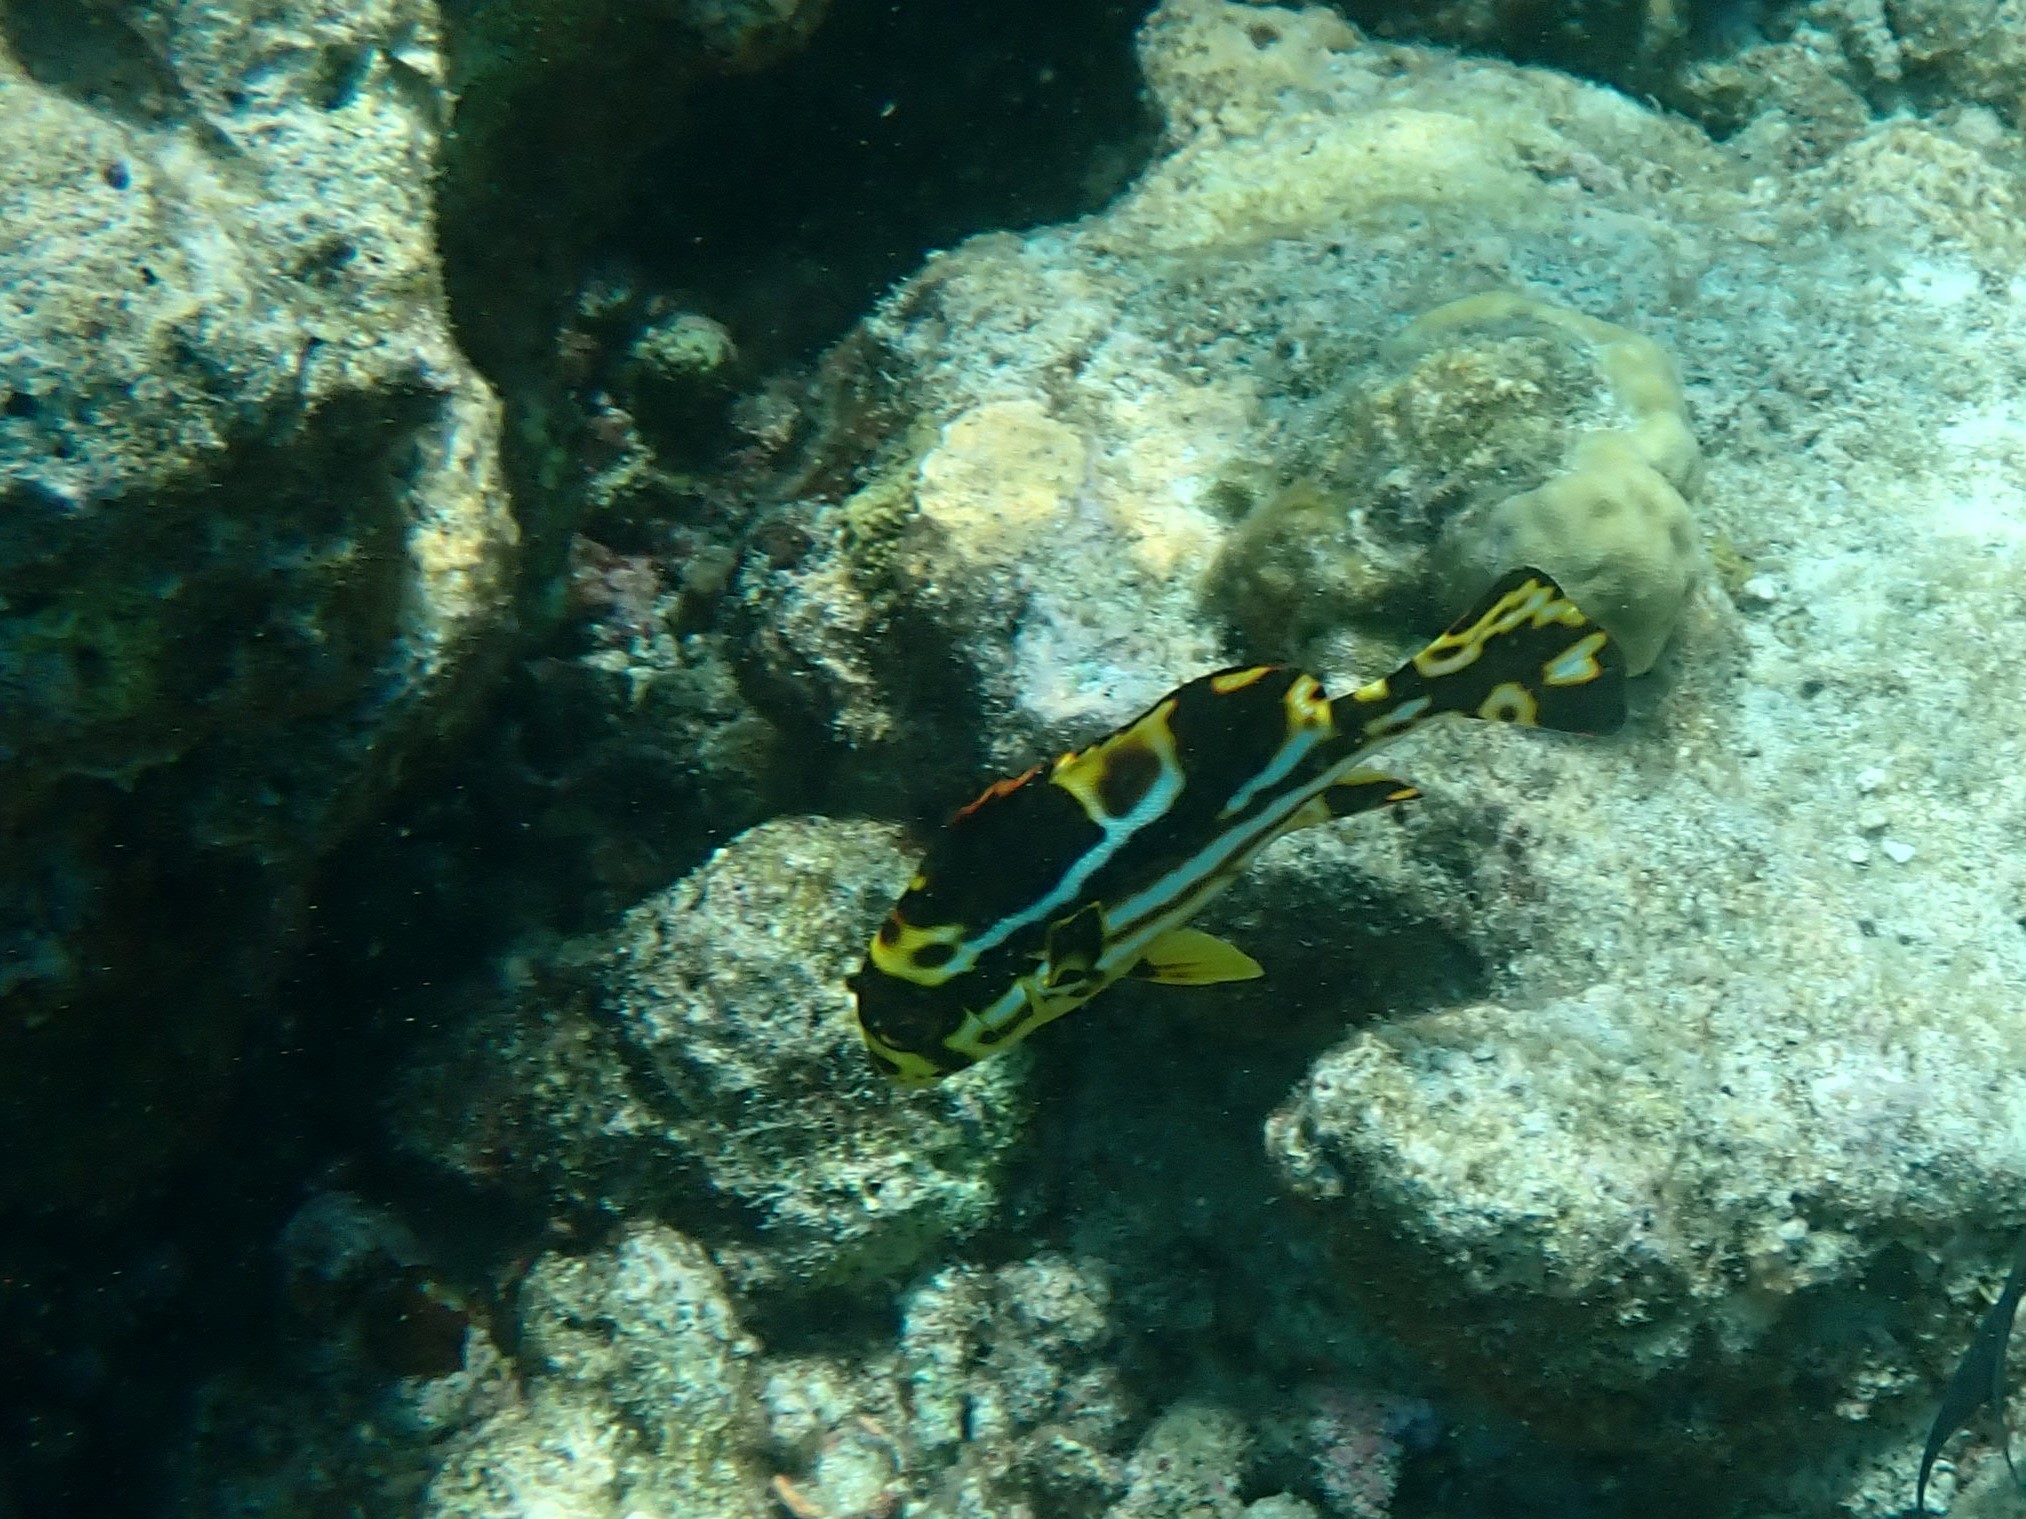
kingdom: Animalia
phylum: Chordata
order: Perciformes
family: Haemulidae
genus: Plectorhinchus
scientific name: Plectorhinchus vittatus
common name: Oriental sweetlips
